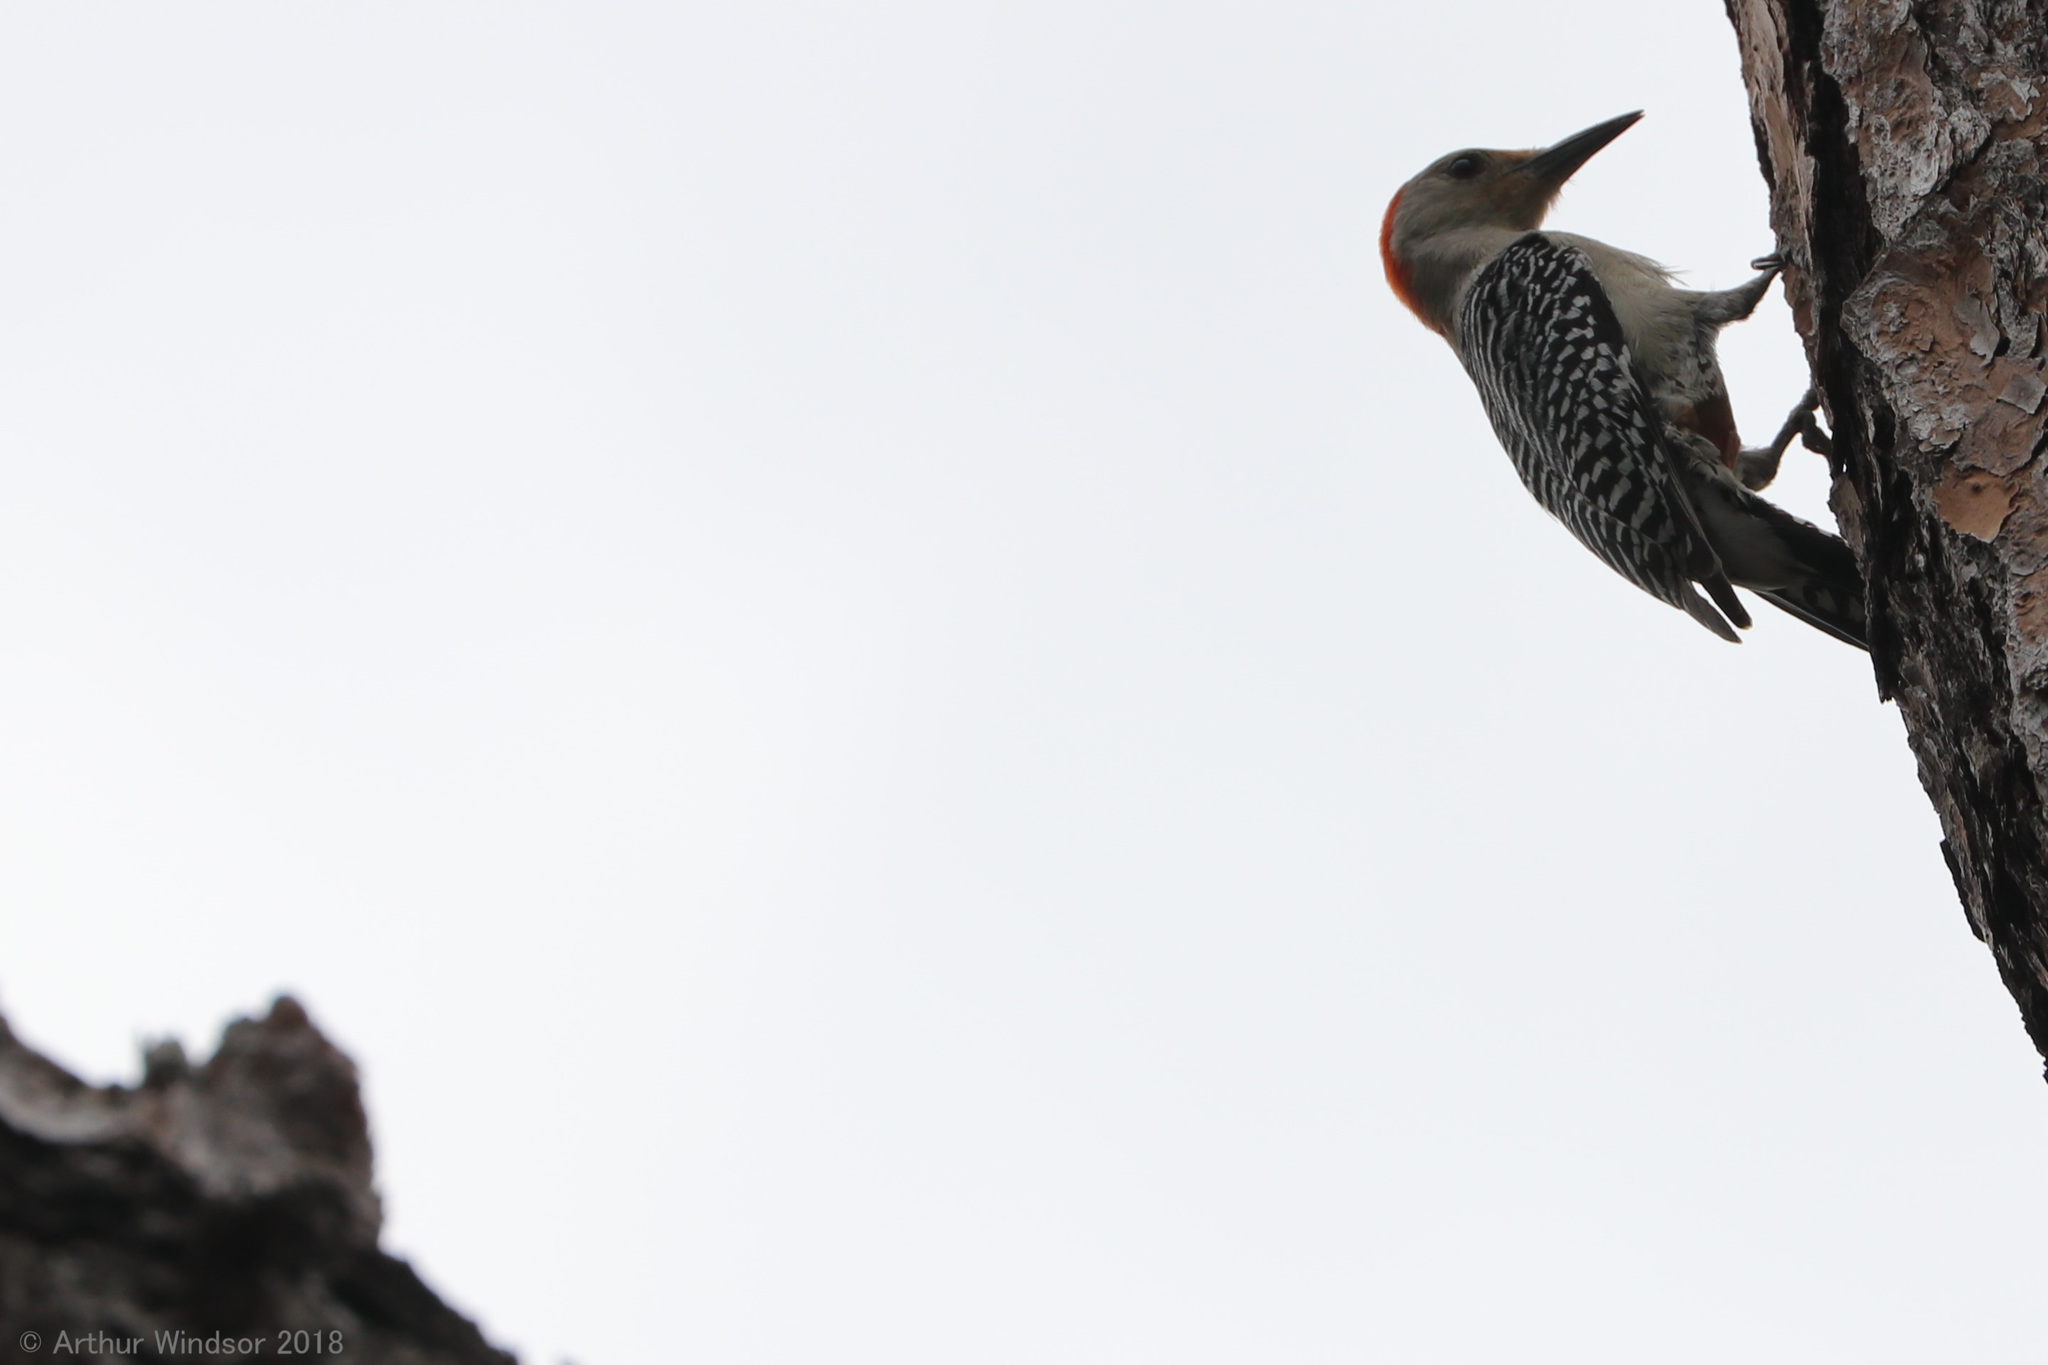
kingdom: Animalia
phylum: Chordata
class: Aves
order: Piciformes
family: Picidae
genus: Melanerpes
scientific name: Melanerpes carolinus
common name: Red-bellied woodpecker
